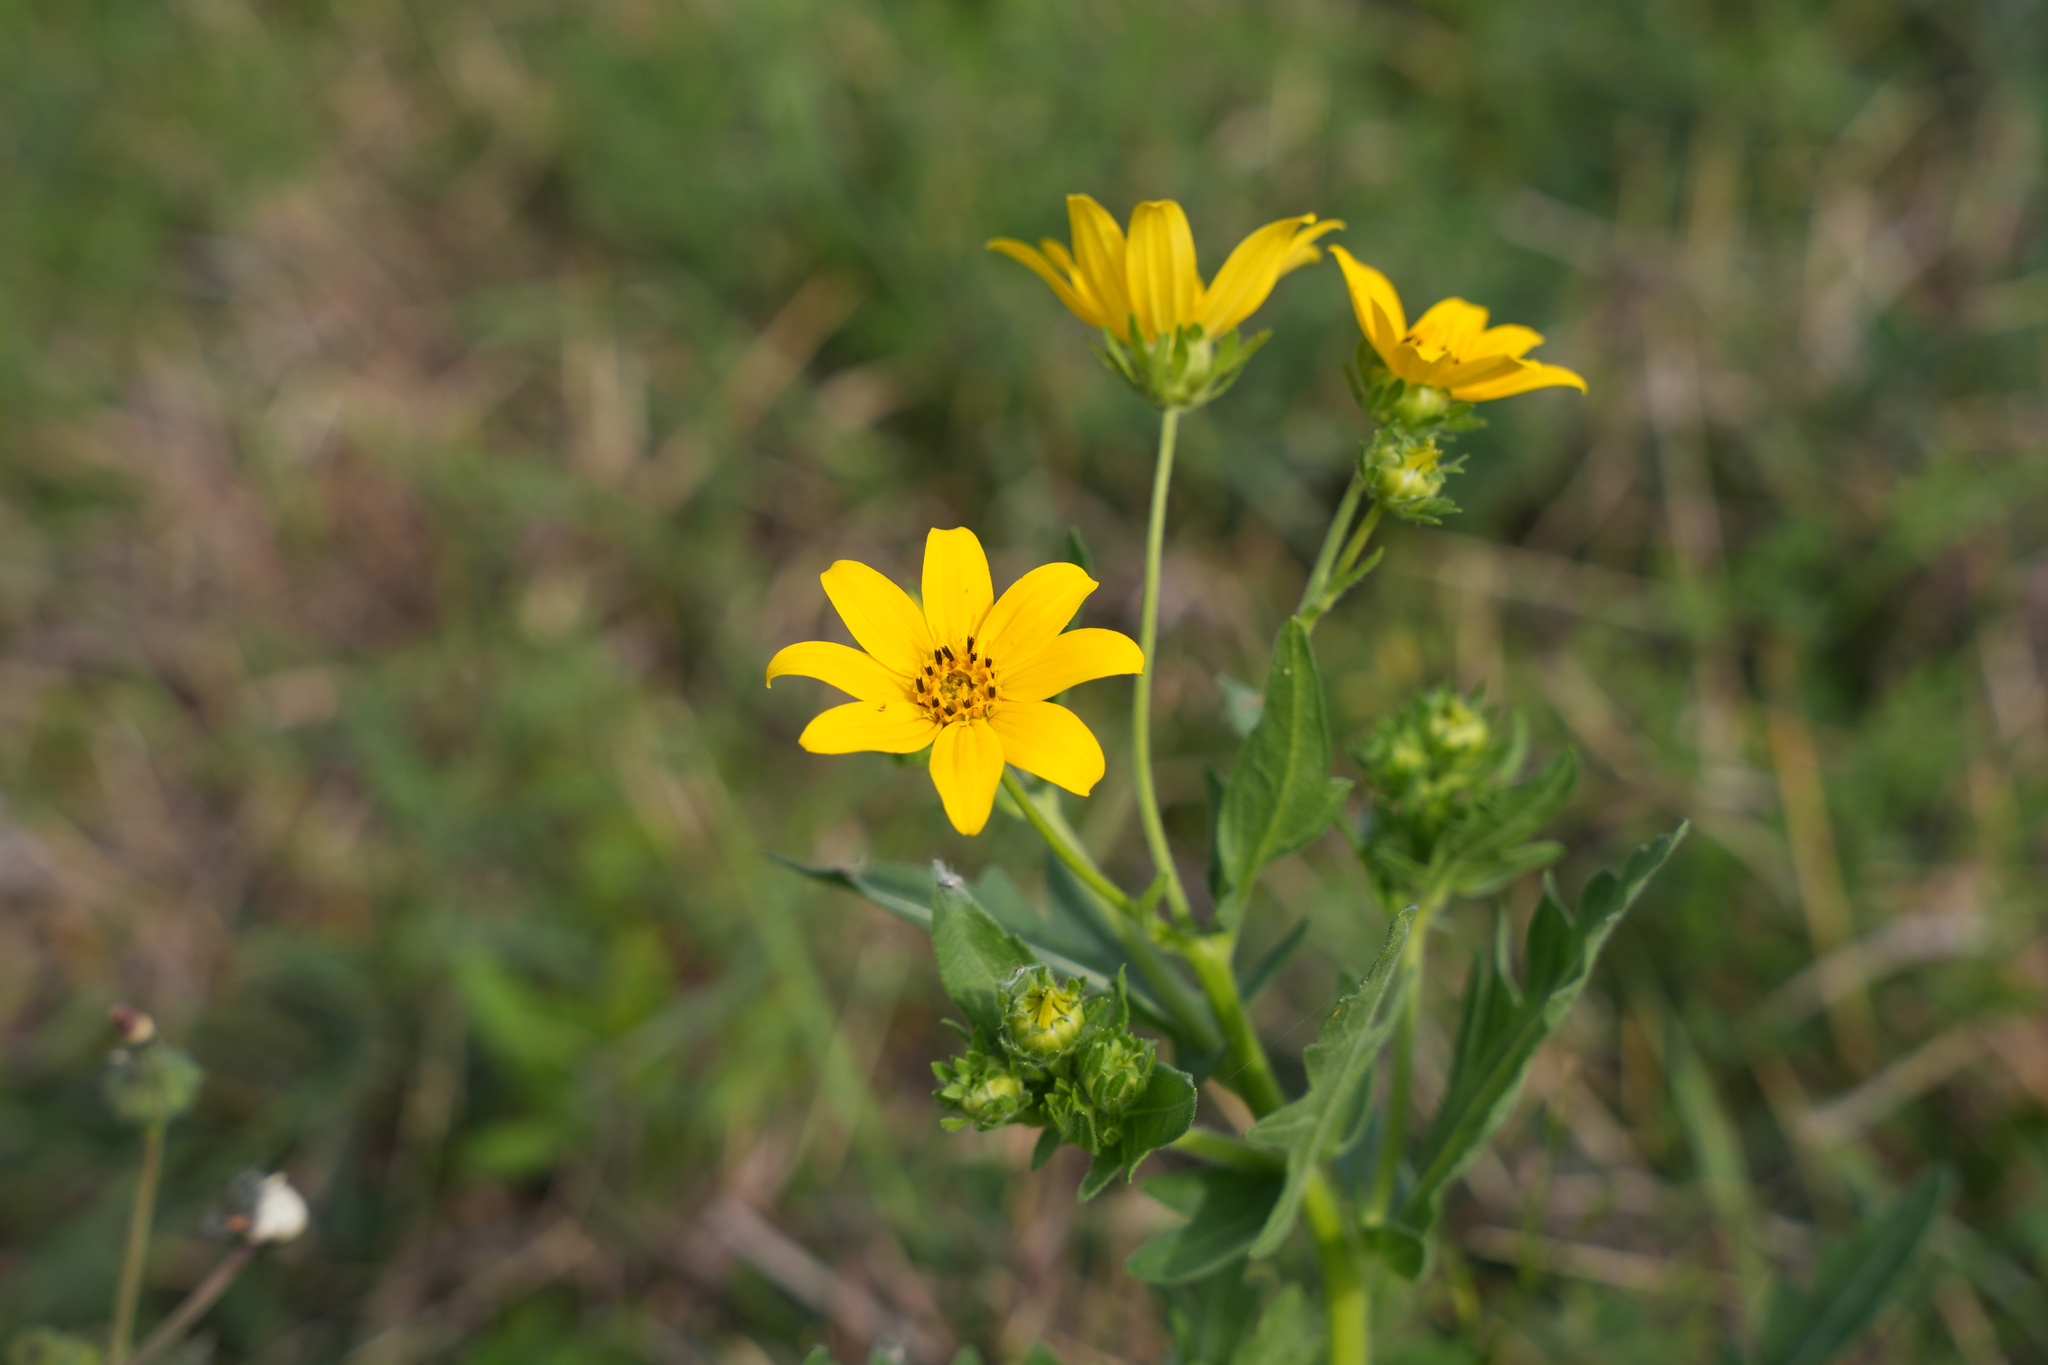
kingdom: Plantae
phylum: Tracheophyta
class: Magnoliopsida
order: Asterales
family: Asteraceae
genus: Engelmannia
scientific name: Engelmannia peristenia
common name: Engelmann's daisy
